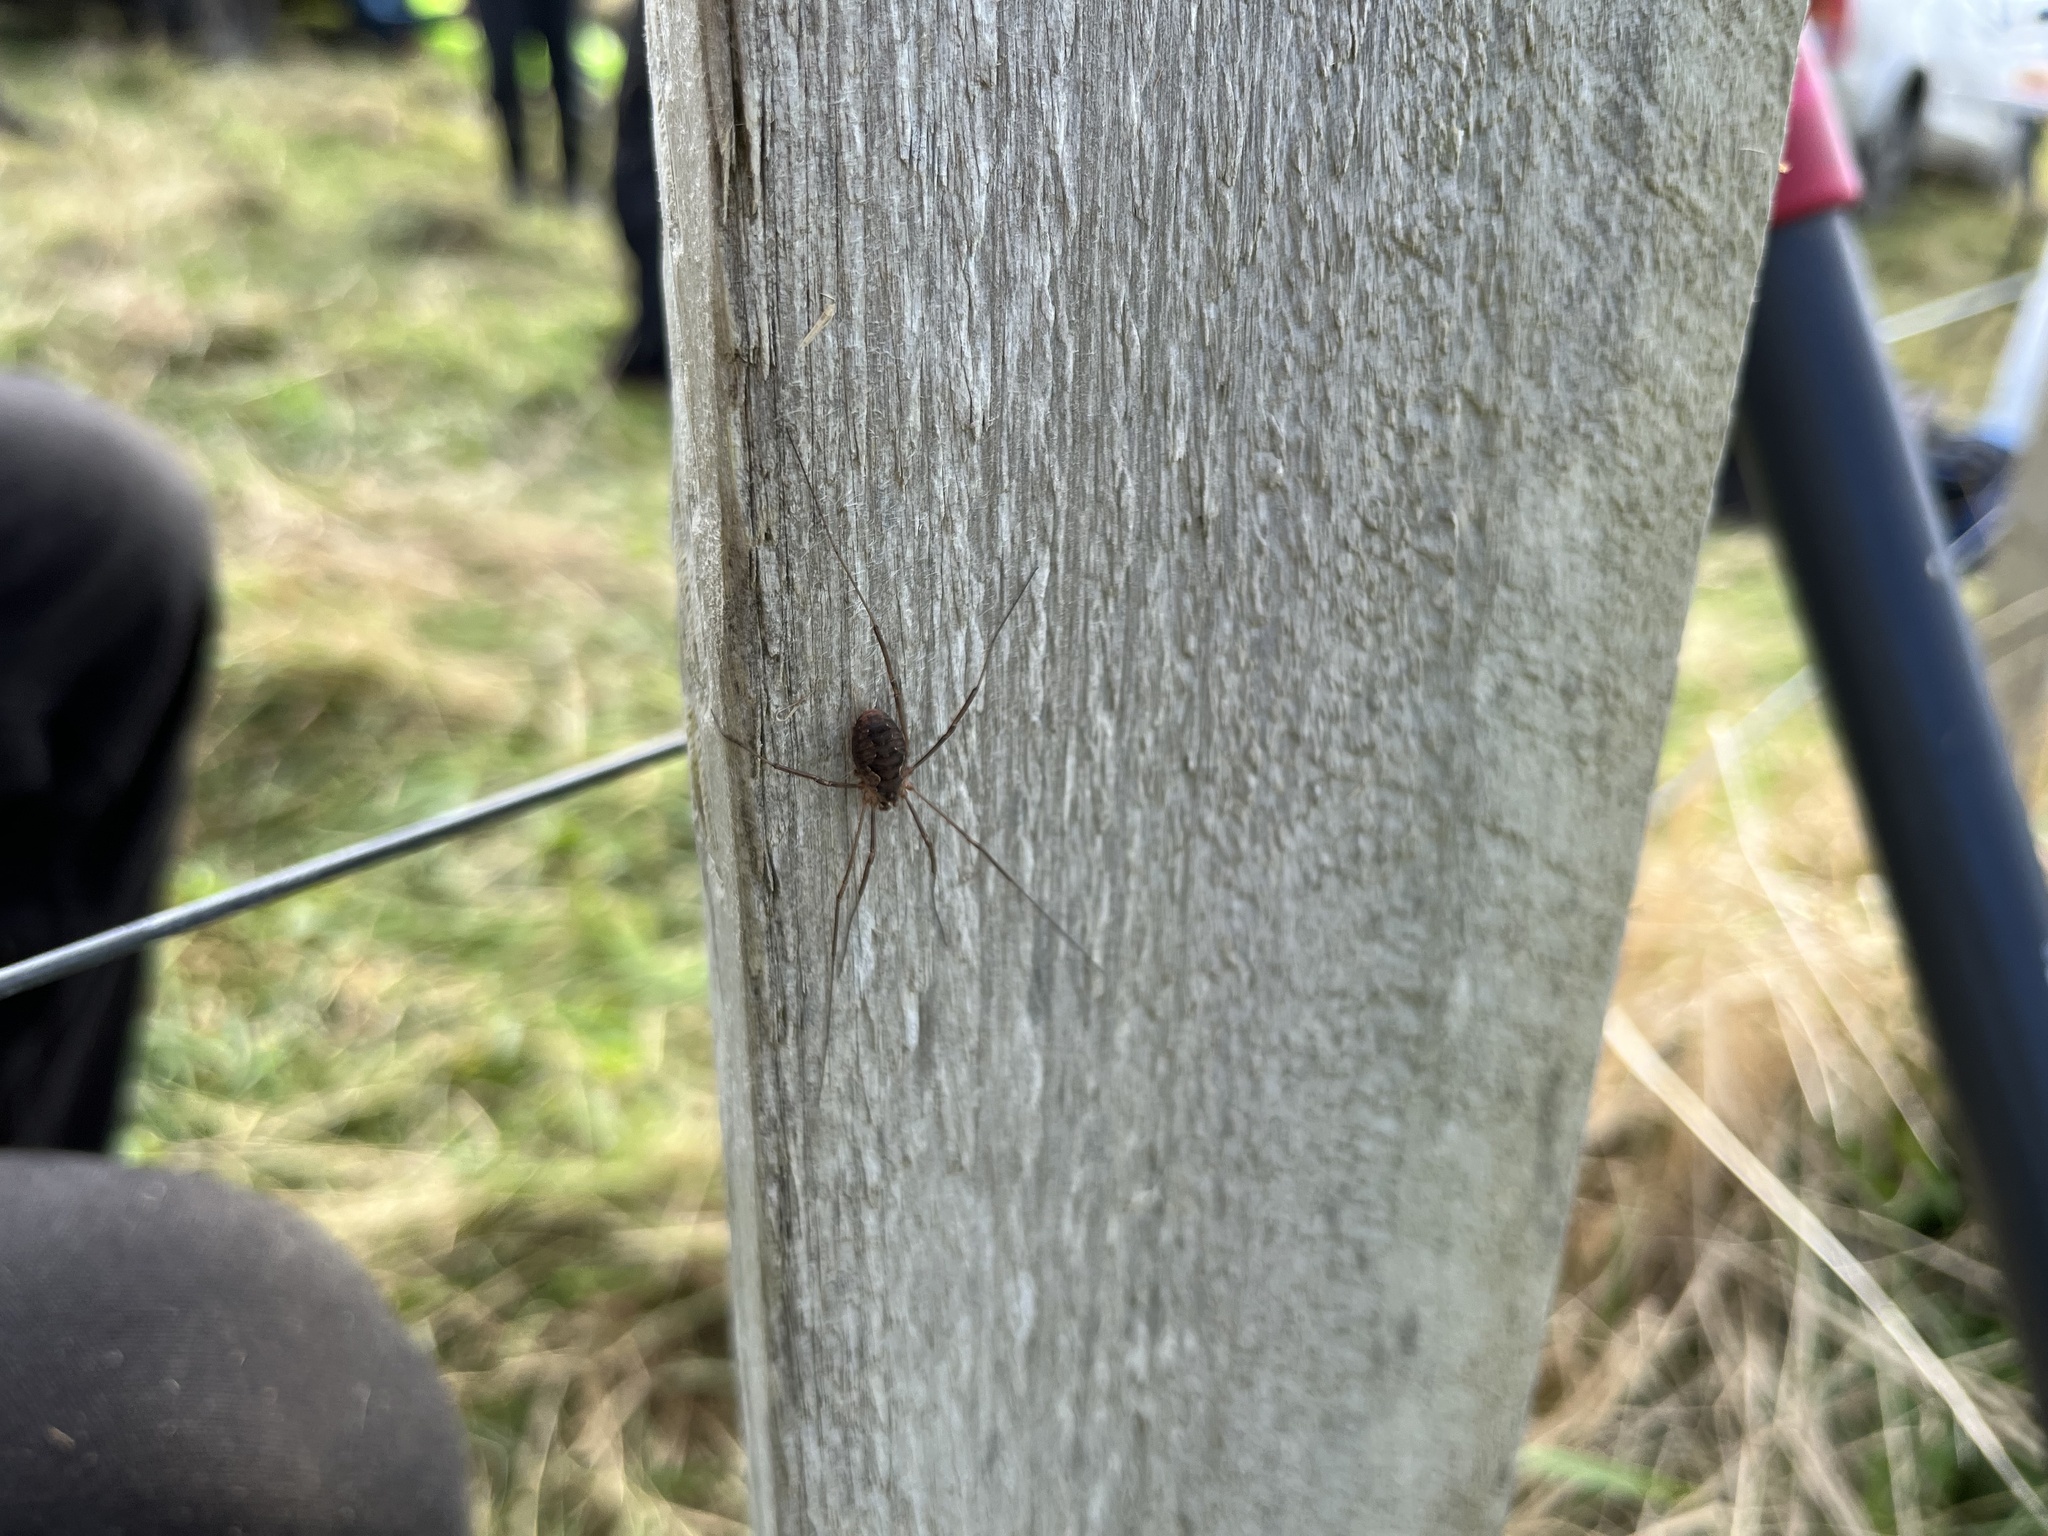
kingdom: Animalia
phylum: Arthropoda
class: Arachnida
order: Opiliones
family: Phalangiidae
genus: Phalangium
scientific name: Phalangium opilio
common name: Daddy longleg
